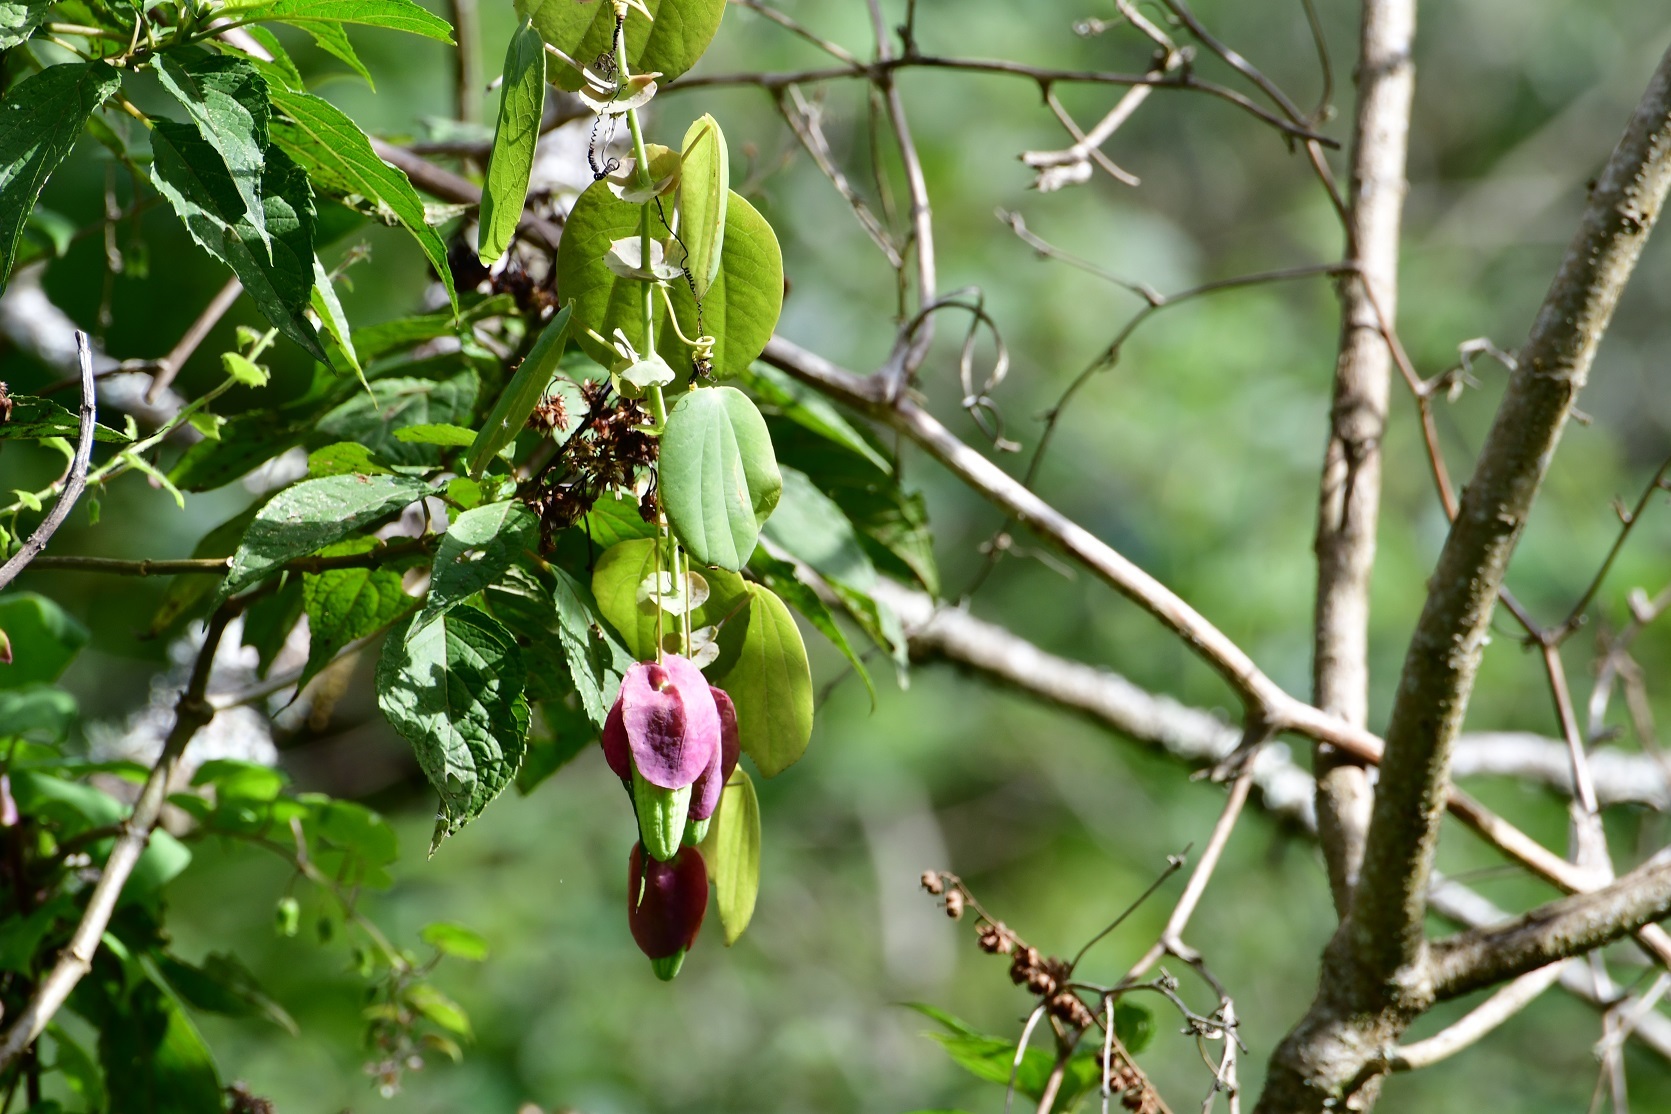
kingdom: Plantae
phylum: Tracheophyta
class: Magnoliopsida
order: Malpighiales
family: Passifloraceae
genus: Passiflora
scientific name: Passiflora membranacea
